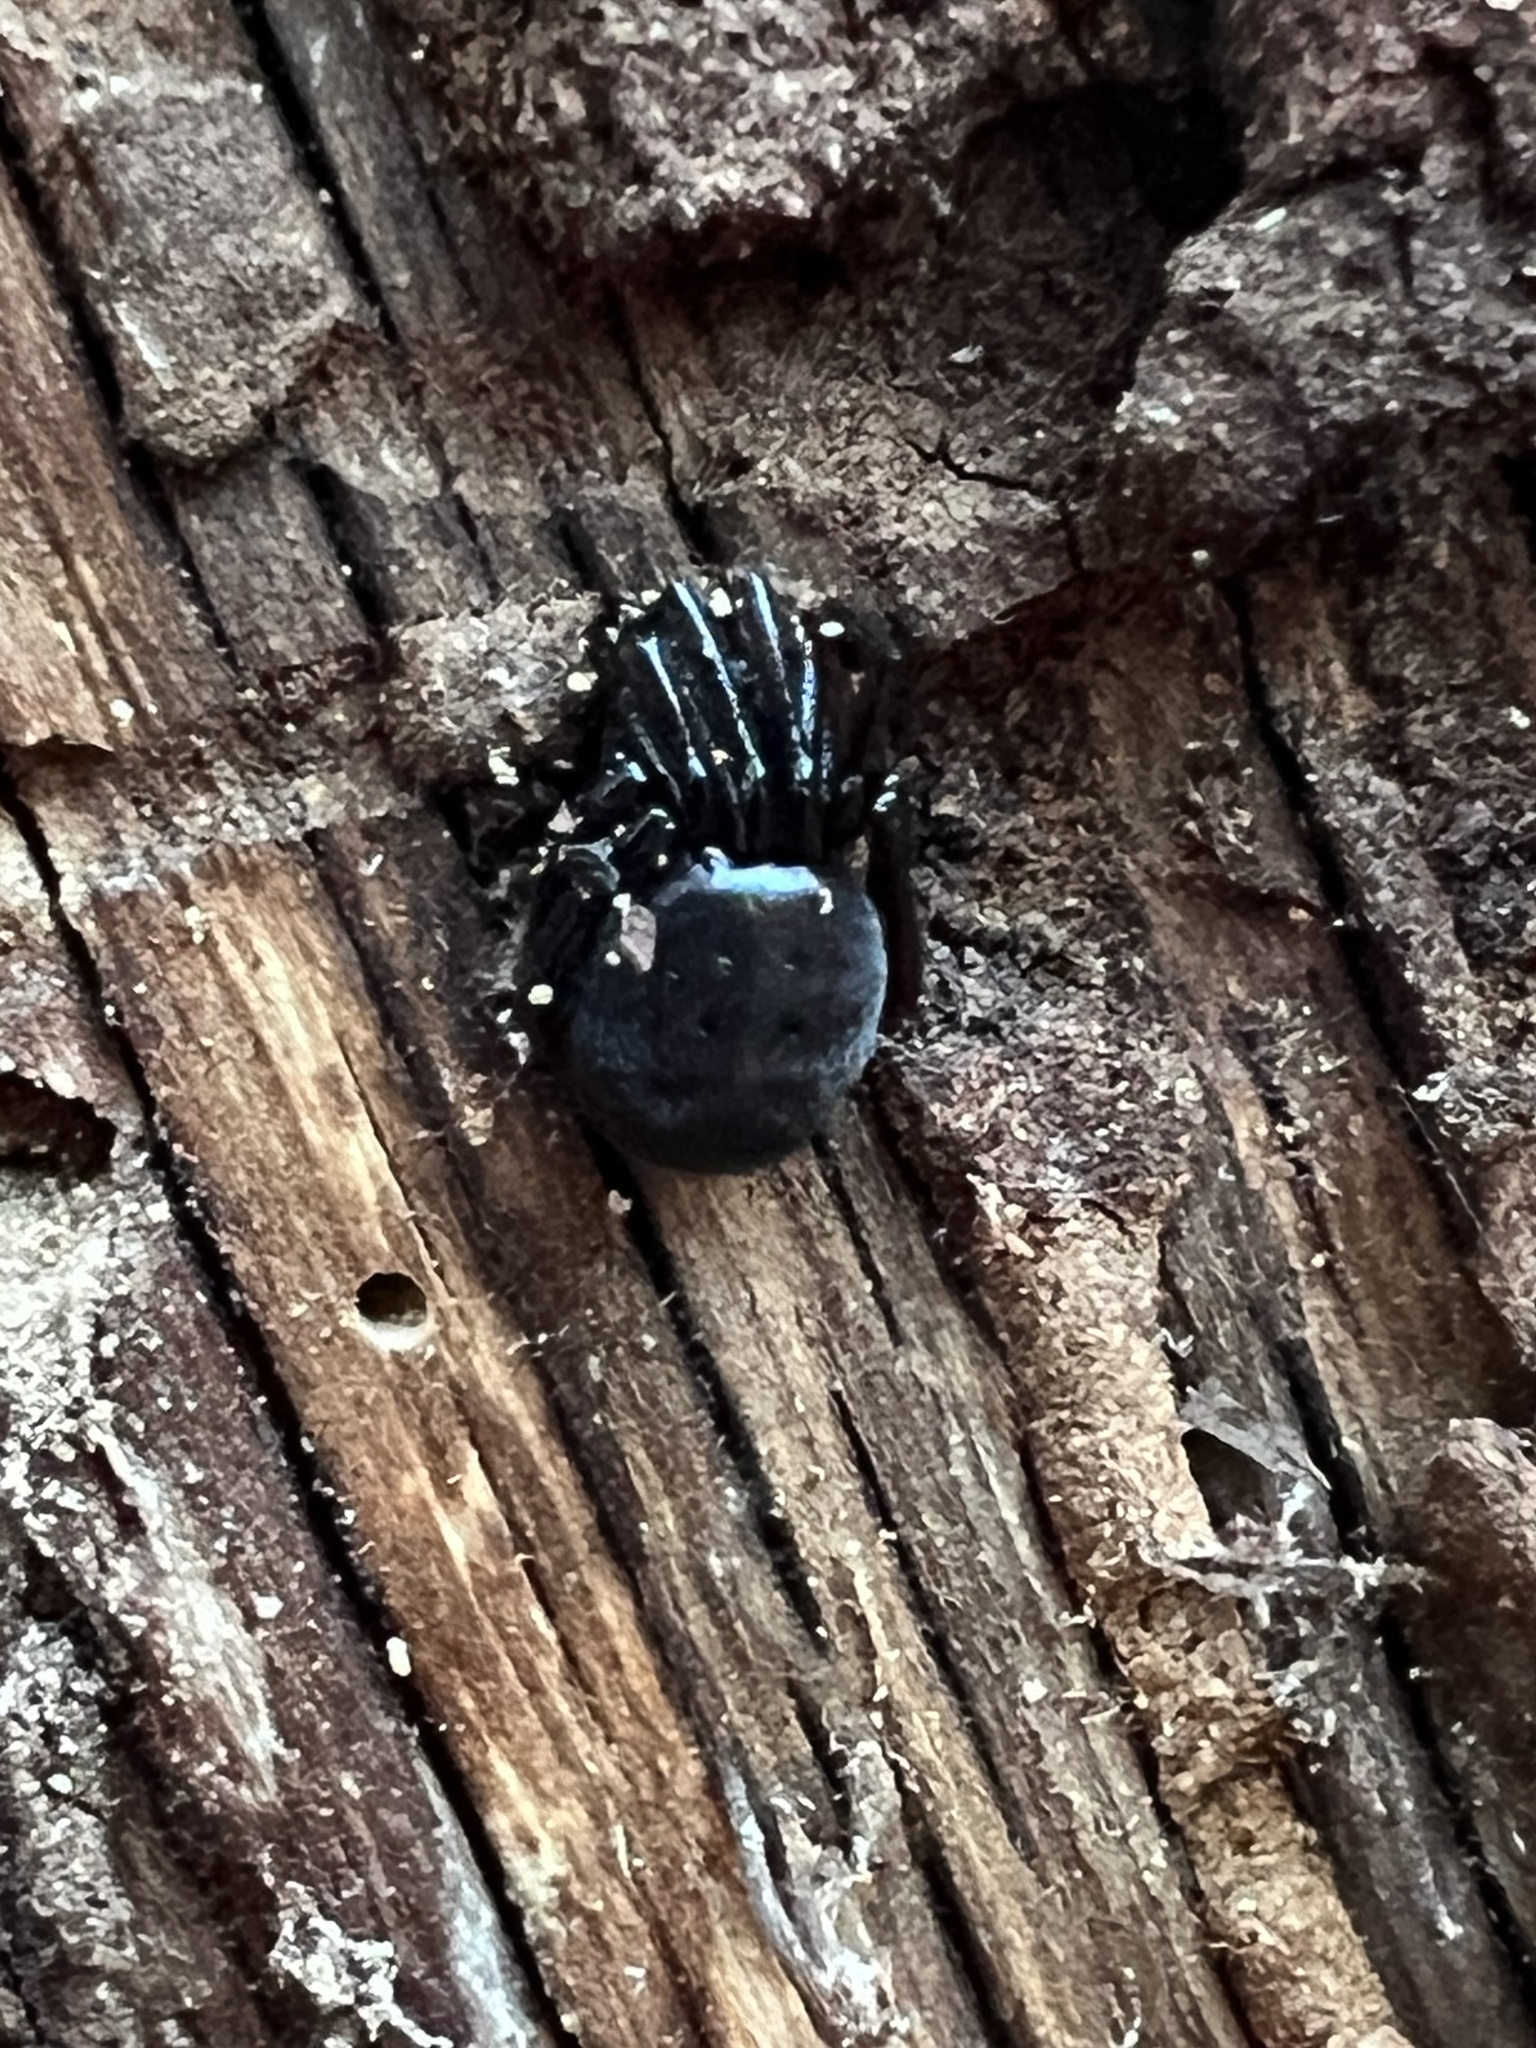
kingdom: Animalia
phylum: Arthropoda
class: Arachnida
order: Araneae
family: Theridiidae
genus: Steatoda
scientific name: Steatoda borealis
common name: Boreal combfoot
